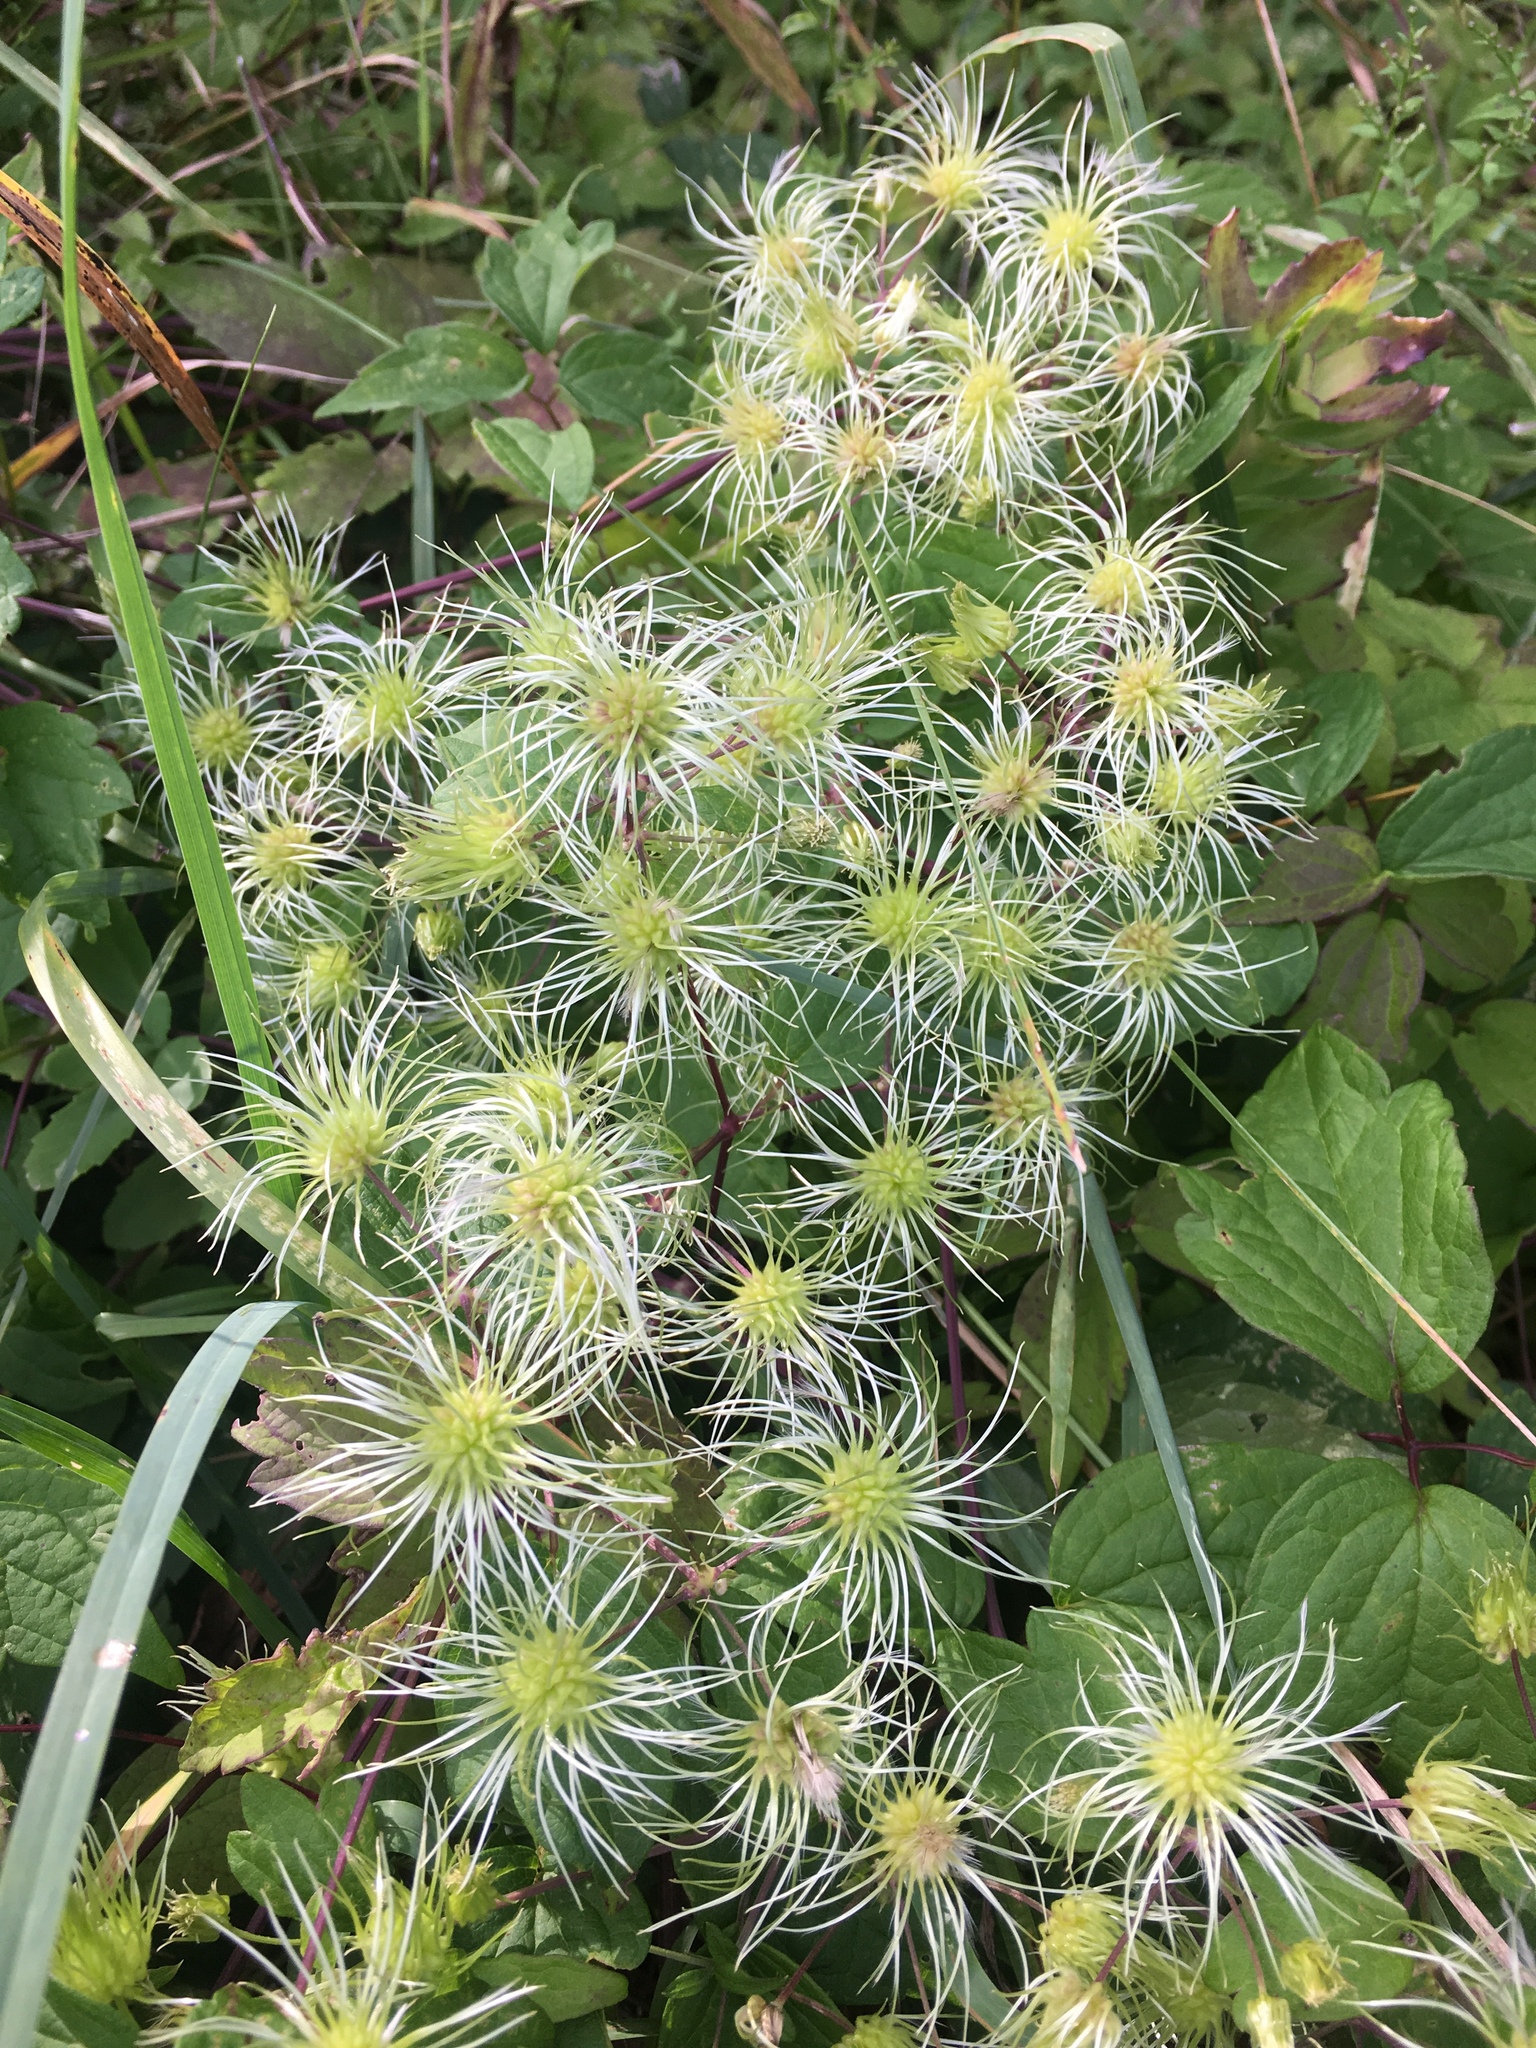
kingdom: Plantae
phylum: Tracheophyta
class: Magnoliopsida
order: Ranunculales
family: Ranunculaceae
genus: Clematis
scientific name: Clematis virginiana
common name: Virgin's-bower
